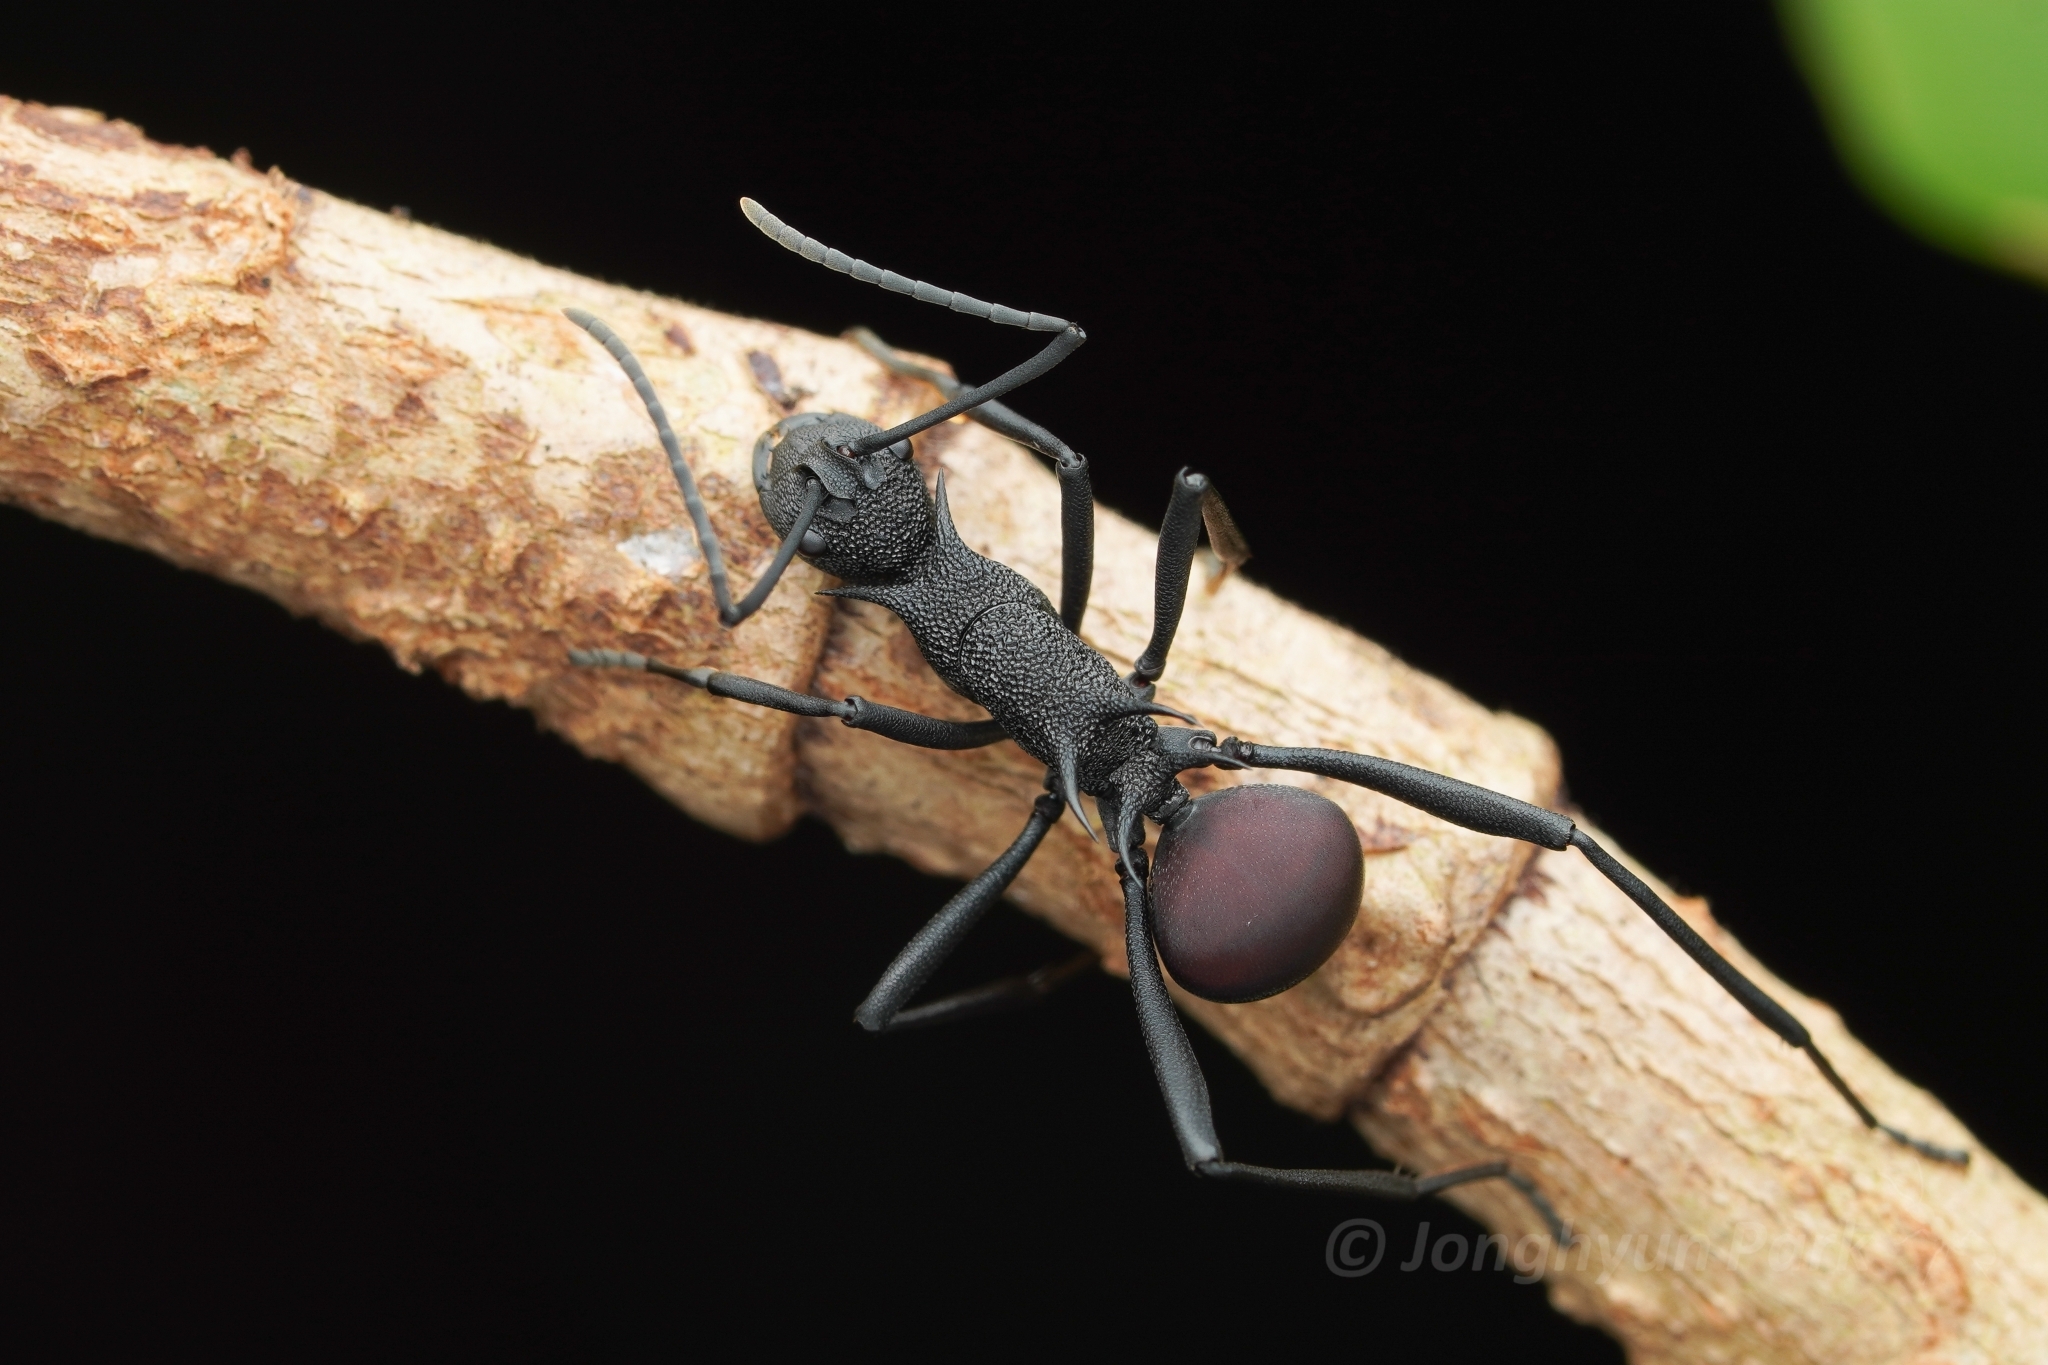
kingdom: Animalia
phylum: Arthropoda
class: Insecta
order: Hymenoptera
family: Formicidae
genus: Polyrhachis
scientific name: Polyrhachis armata
